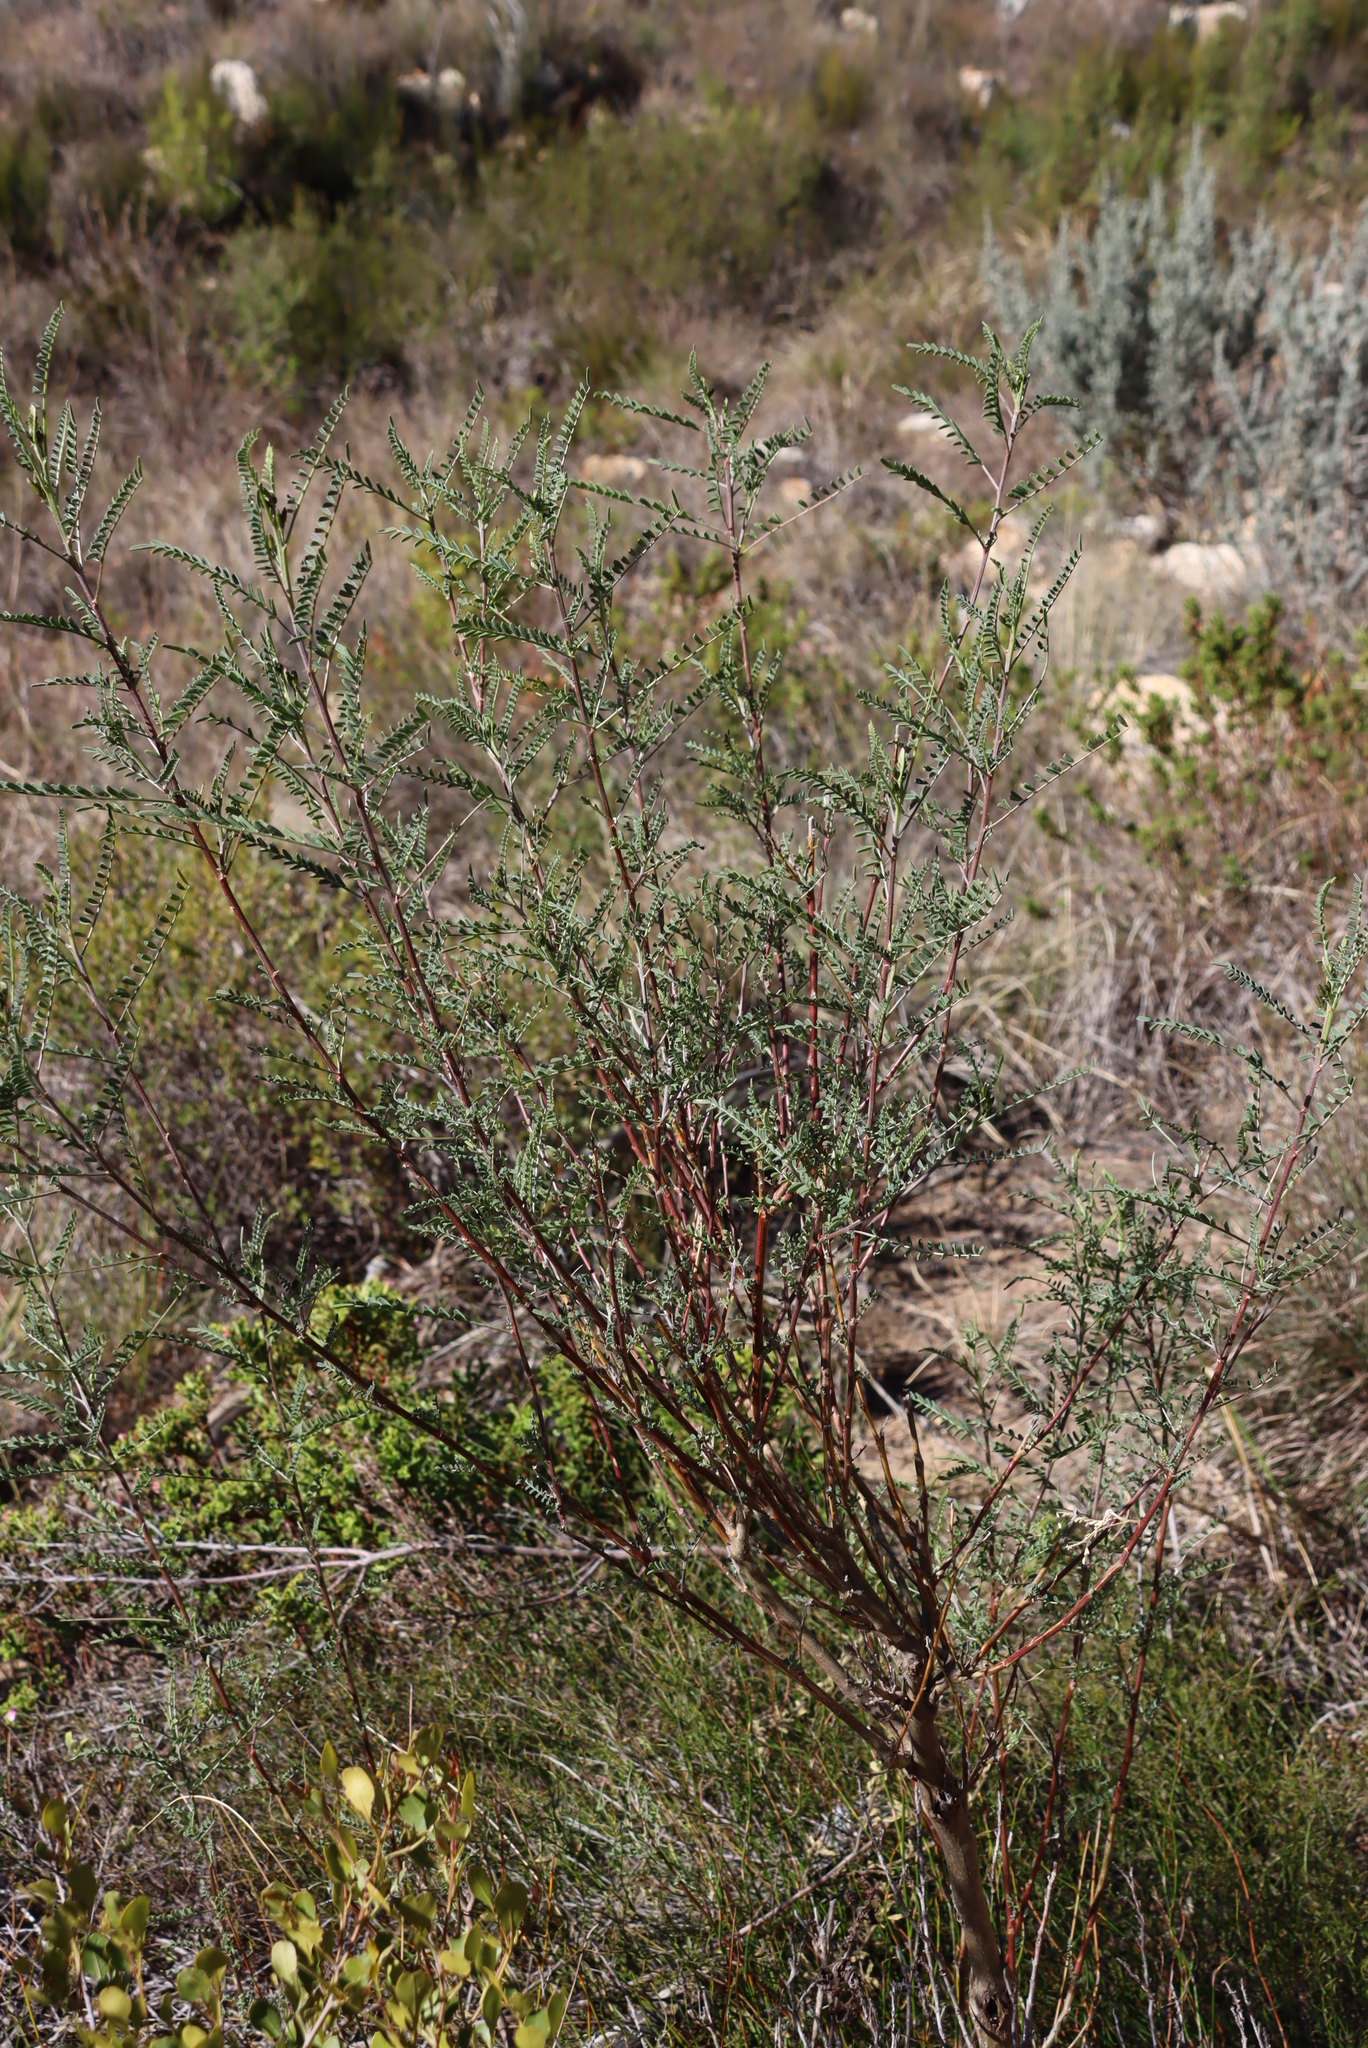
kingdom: Plantae
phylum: Tracheophyta
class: Magnoliopsida
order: Fabales
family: Fabaceae
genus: Lessertia
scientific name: Lessertia frutescens
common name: Balloon-pea
